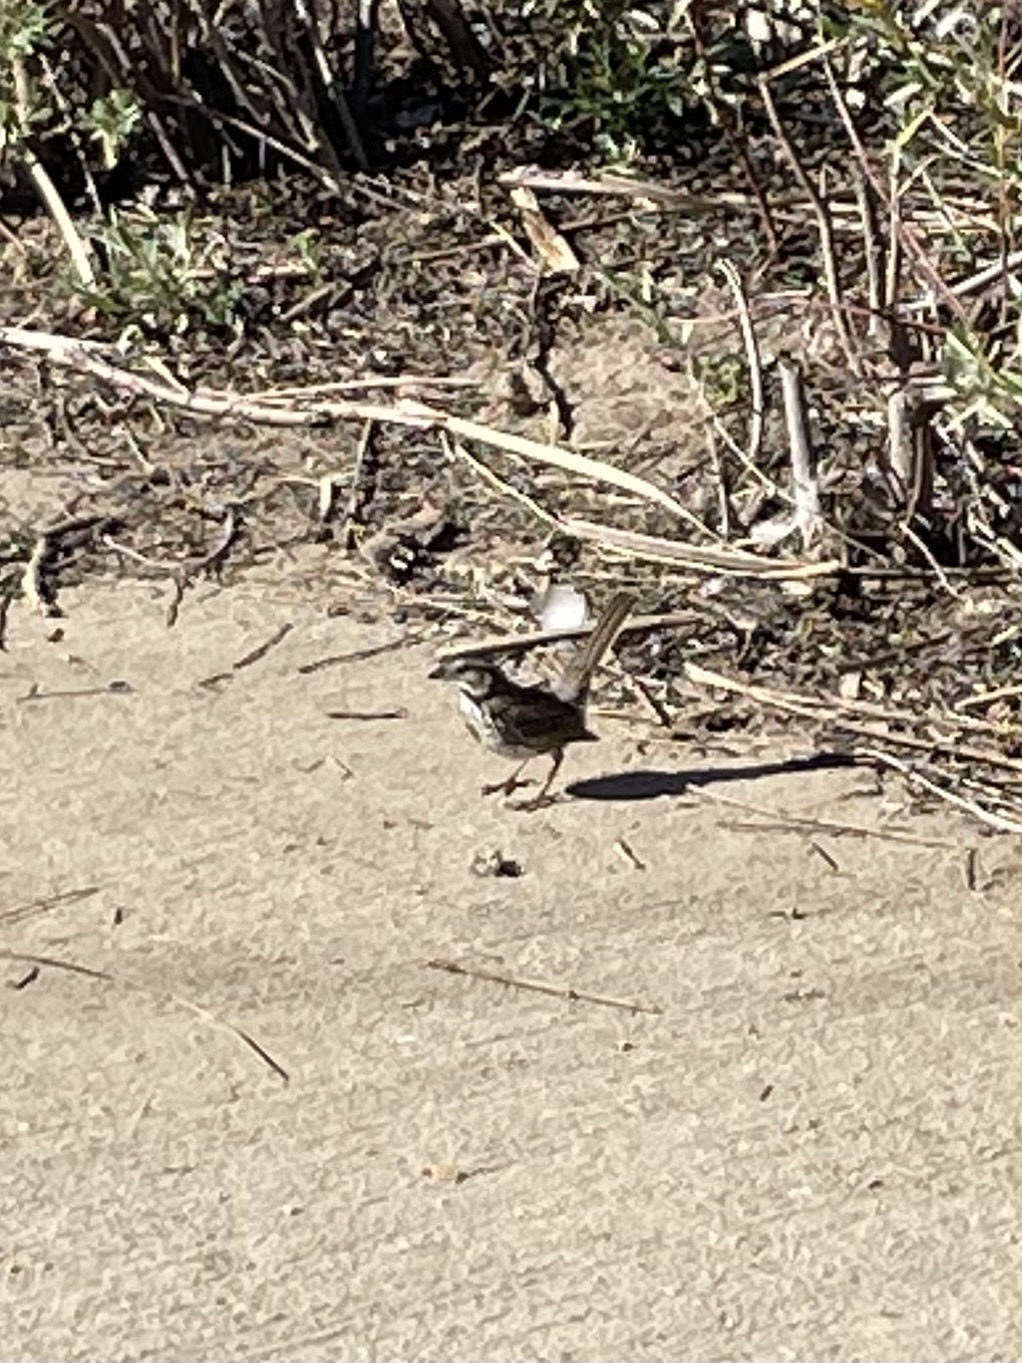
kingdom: Animalia
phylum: Chordata
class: Aves
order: Passeriformes
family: Passerellidae
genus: Melospiza
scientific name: Melospiza melodia
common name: Song sparrow
